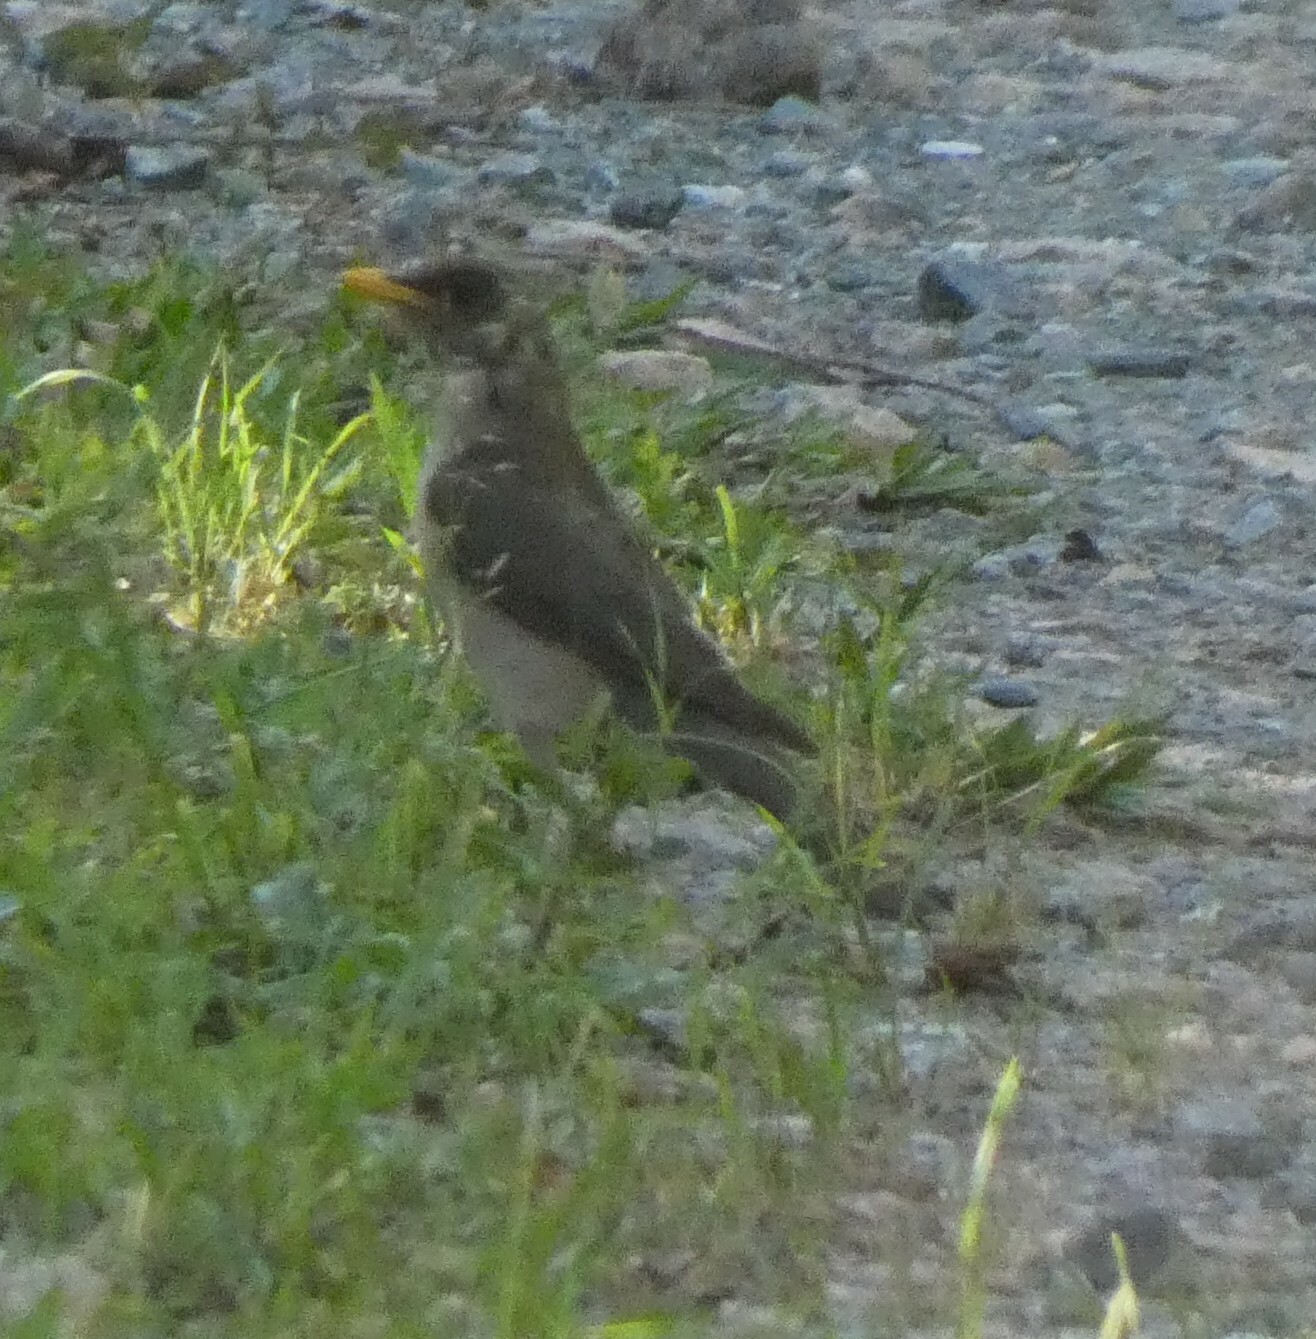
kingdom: Animalia
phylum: Chordata
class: Aves
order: Passeriformes
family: Turdidae
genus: Turdus
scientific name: Turdus amaurochalinus
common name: Creamy-bellied thrush
